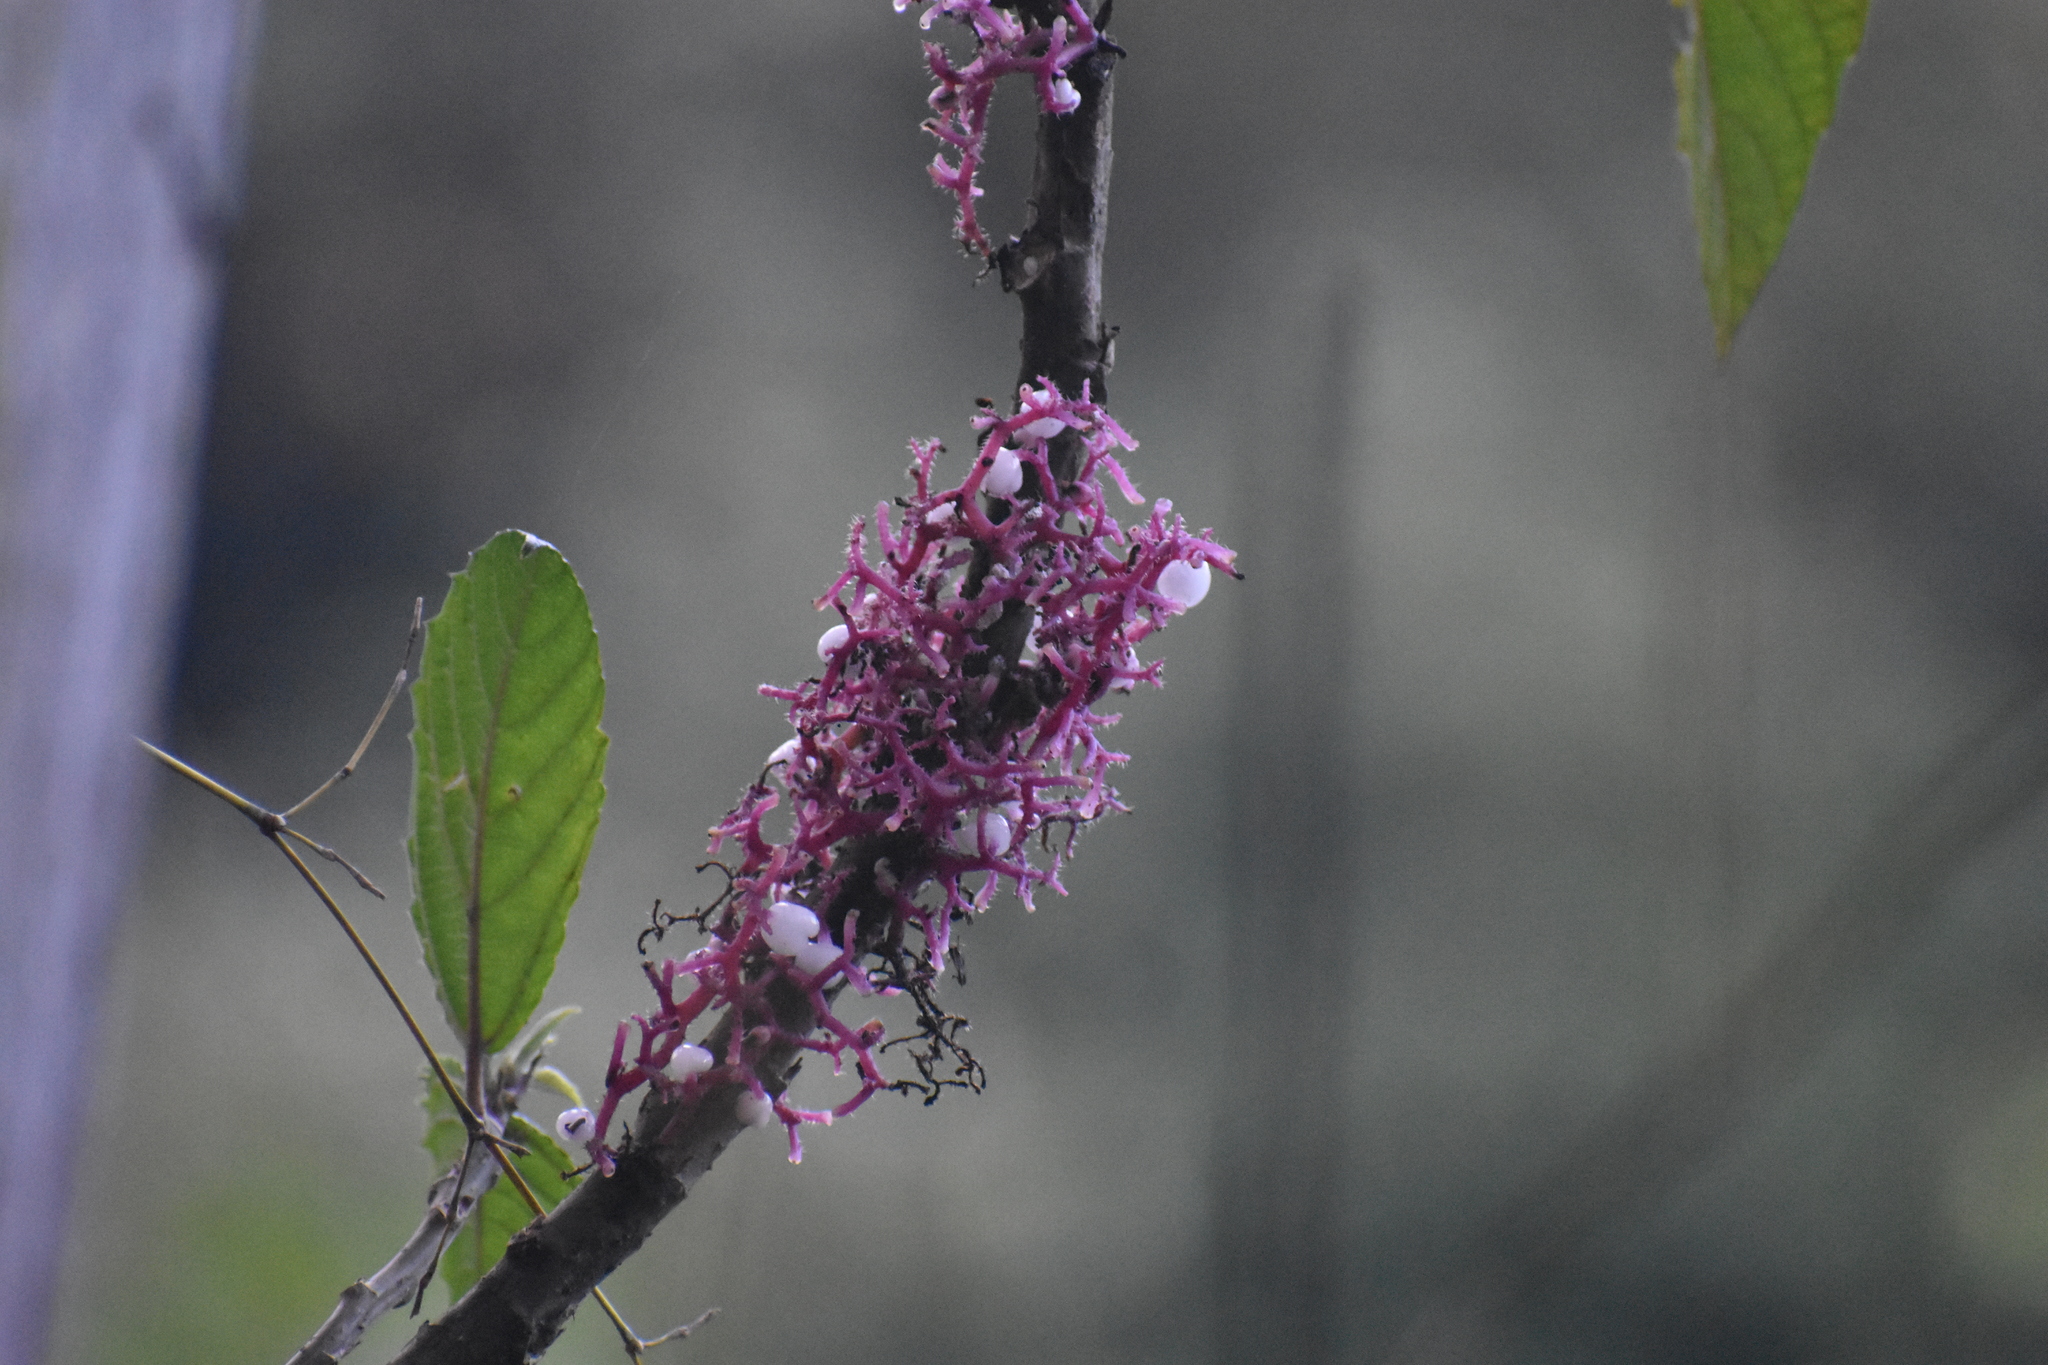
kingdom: Plantae
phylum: Tracheophyta
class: Magnoliopsida
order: Rosales
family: Urticaceae
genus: Urera
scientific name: Urera baccifera
